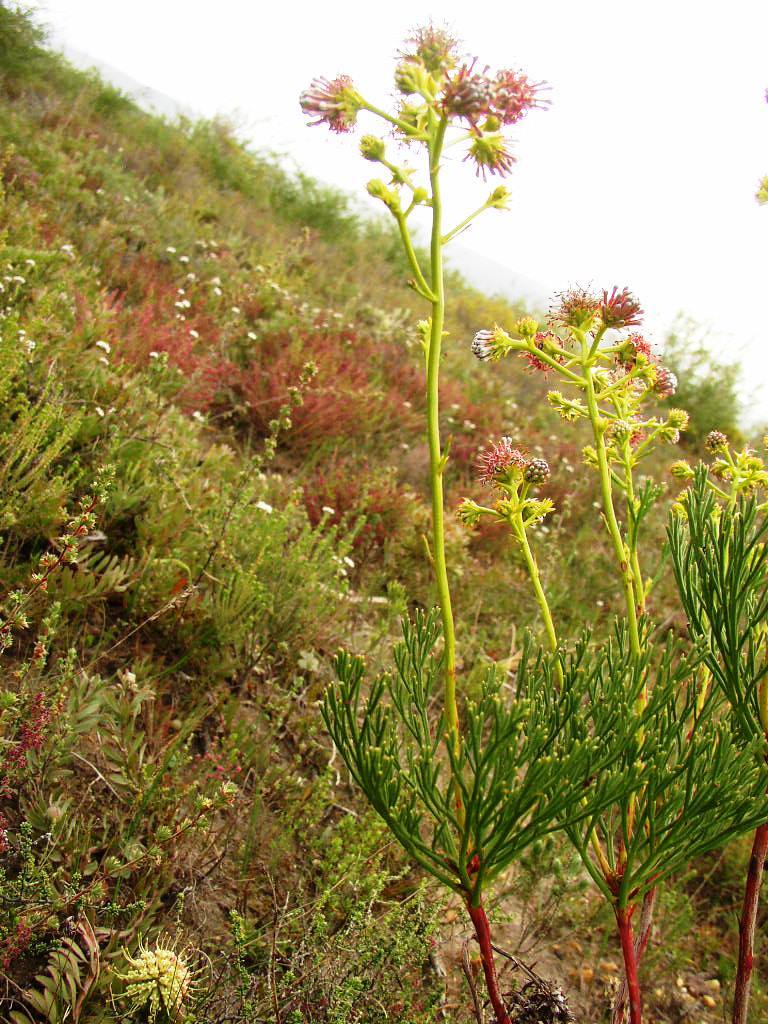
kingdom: Plantae
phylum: Tracheophyta
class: Magnoliopsida
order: Proteales
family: Proteaceae
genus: Serruria
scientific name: Serruria elongata
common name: Long-stalk spiderhead
